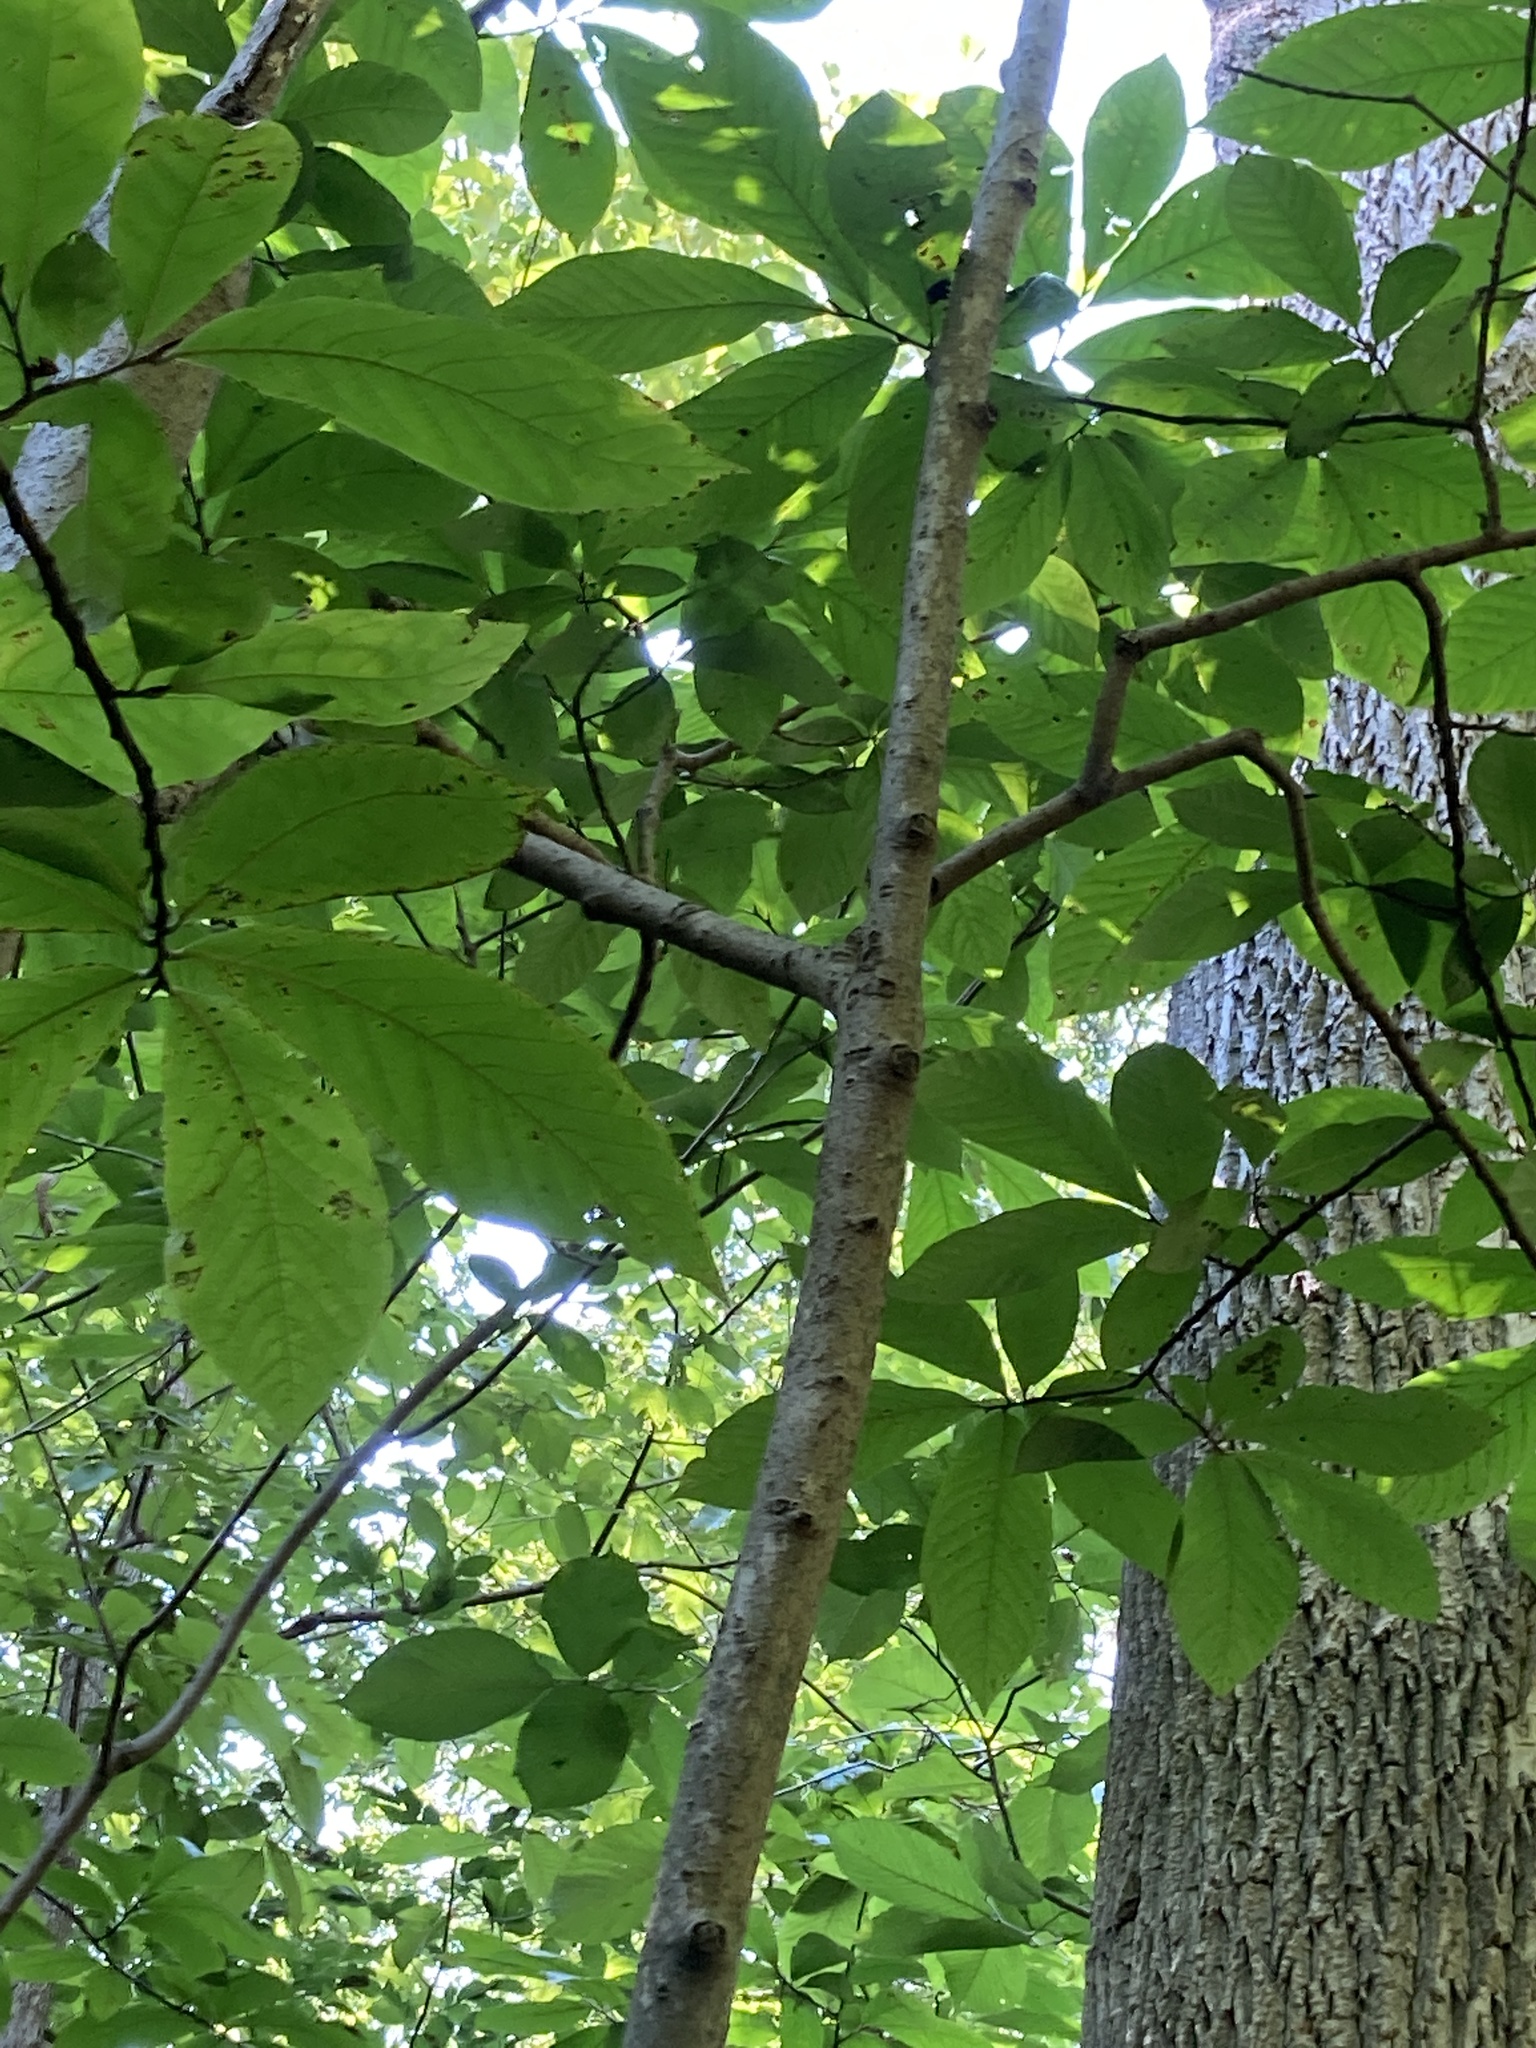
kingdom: Plantae
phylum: Tracheophyta
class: Magnoliopsida
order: Magnoliales
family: Annonaceae
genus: Asimina
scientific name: Asimina triloba
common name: Dog-banana
